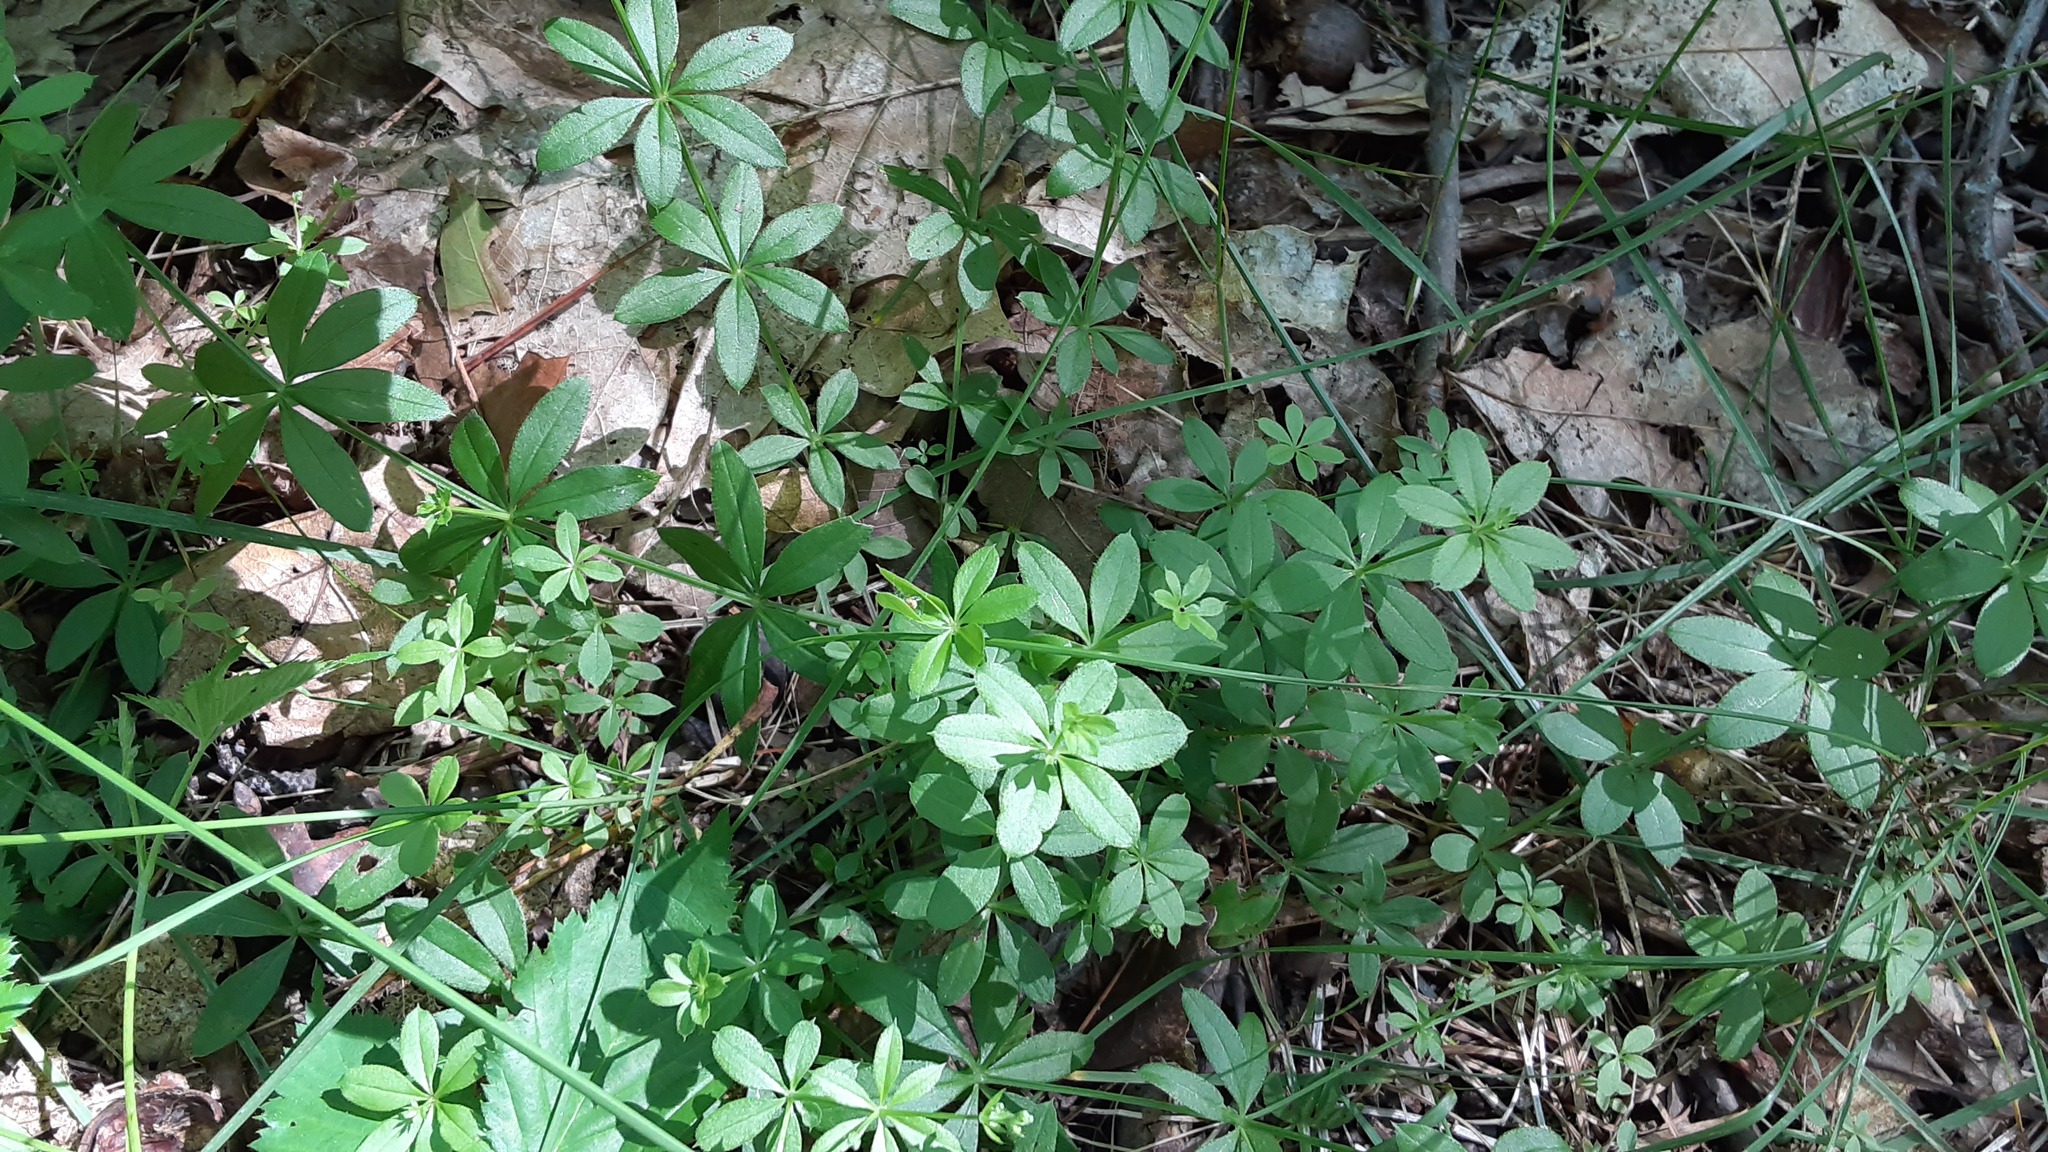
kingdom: Plantae
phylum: Tracheophyta
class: Magnoliopsida
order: Gentianales
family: Rubiaceae
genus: Galium
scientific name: Galium triflorum
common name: Fragrant bedstraw
